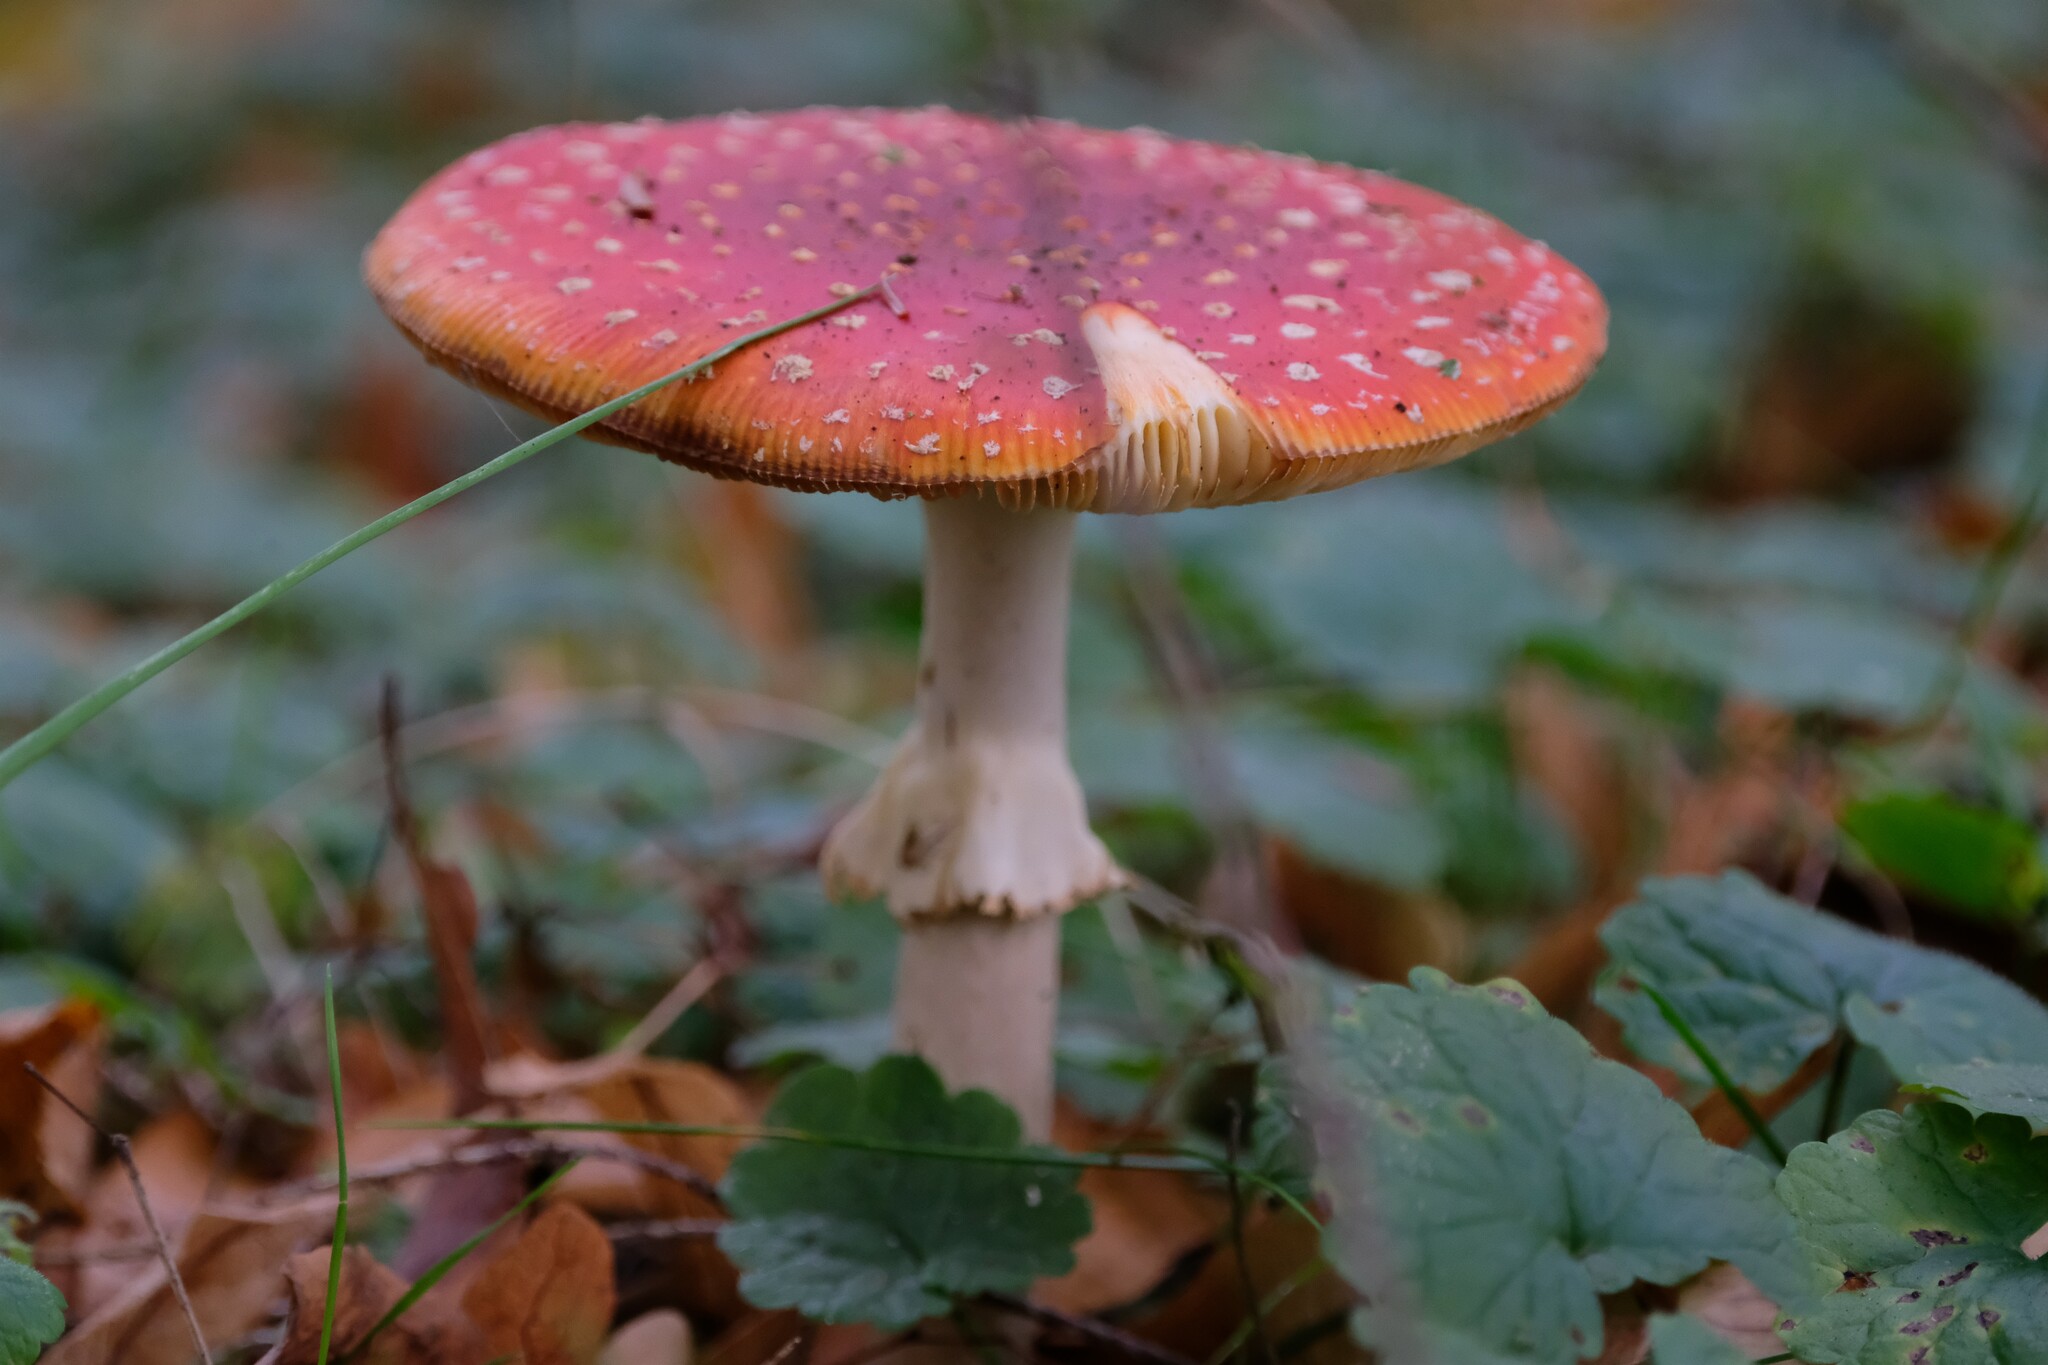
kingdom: Fungi
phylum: Basidiomycota
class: Agaricomycetes
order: Agaricales
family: Amanitaceae
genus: Amanita
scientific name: Amanita muscaria
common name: Fly agaric
